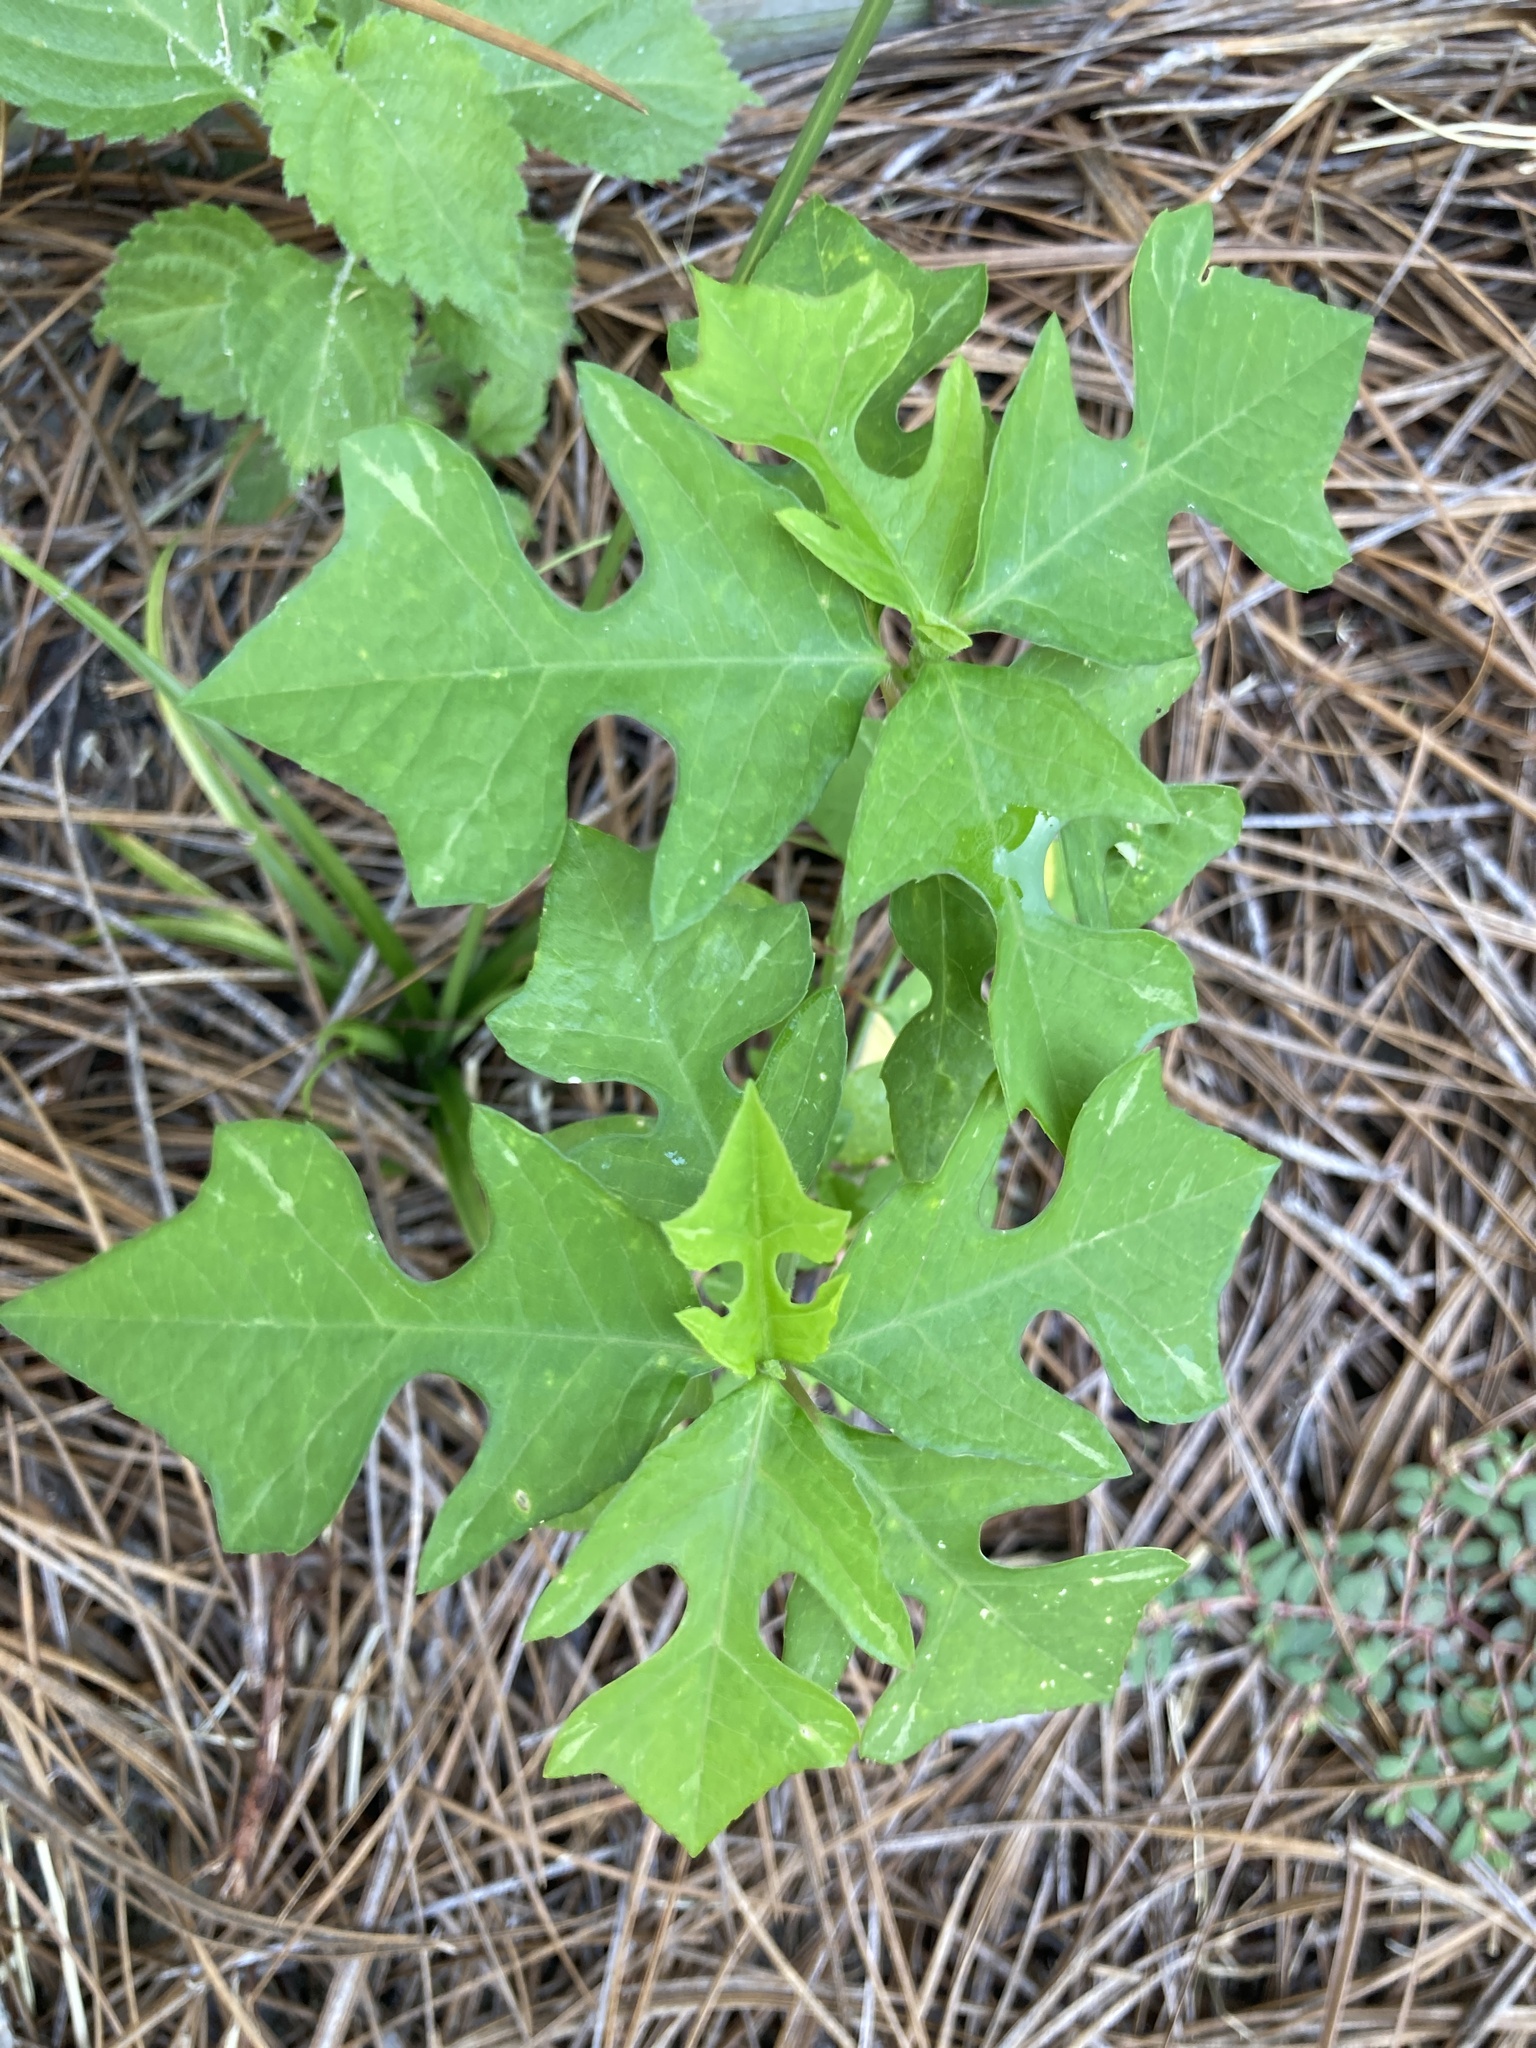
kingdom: Plantae
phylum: Tracheophyta
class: Magnoliopsida
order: Malpighiales
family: Euphorbiaceae
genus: Euphorbia
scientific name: Euphorbia heterophylla
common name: Mexican fireplant
